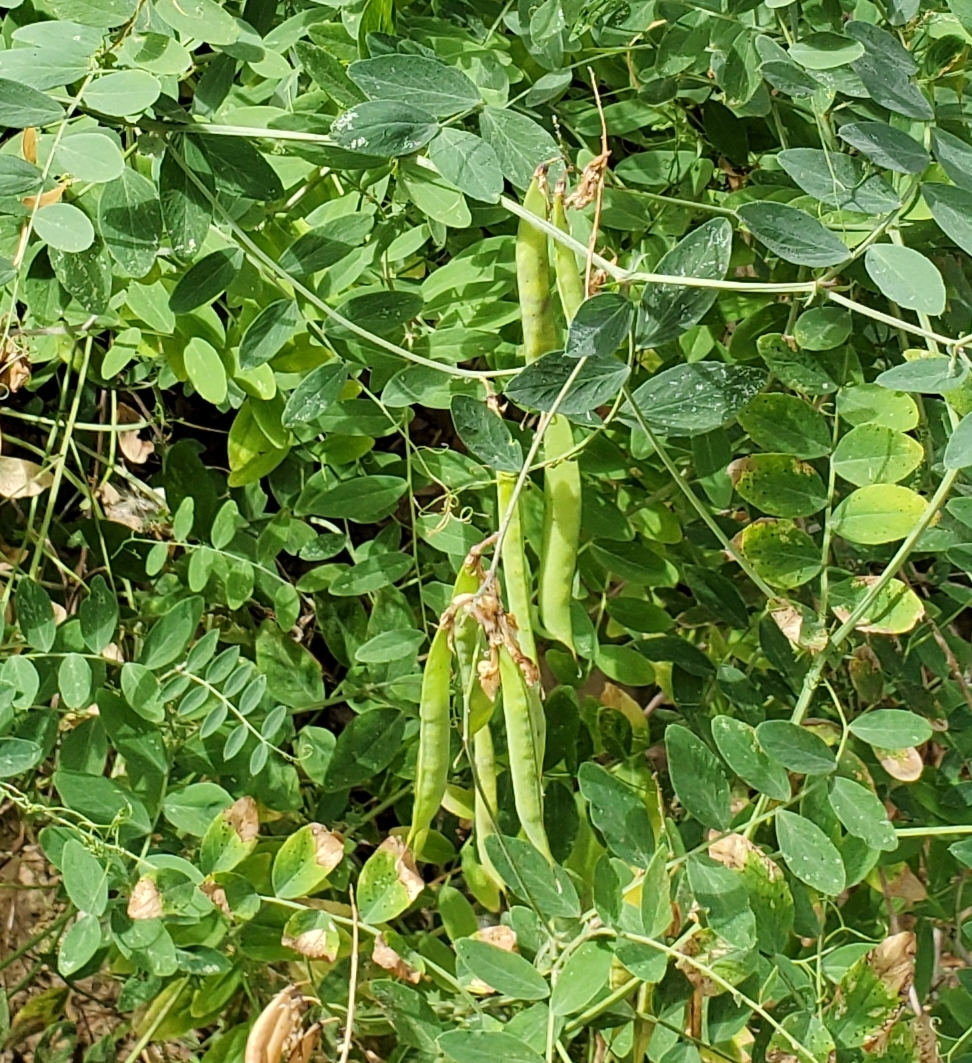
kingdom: Plantae
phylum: Tracheophyta
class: Magnoliopsida
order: Fabales
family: Fabaceae
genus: Lathyrus
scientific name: Lathyrus vestitus
